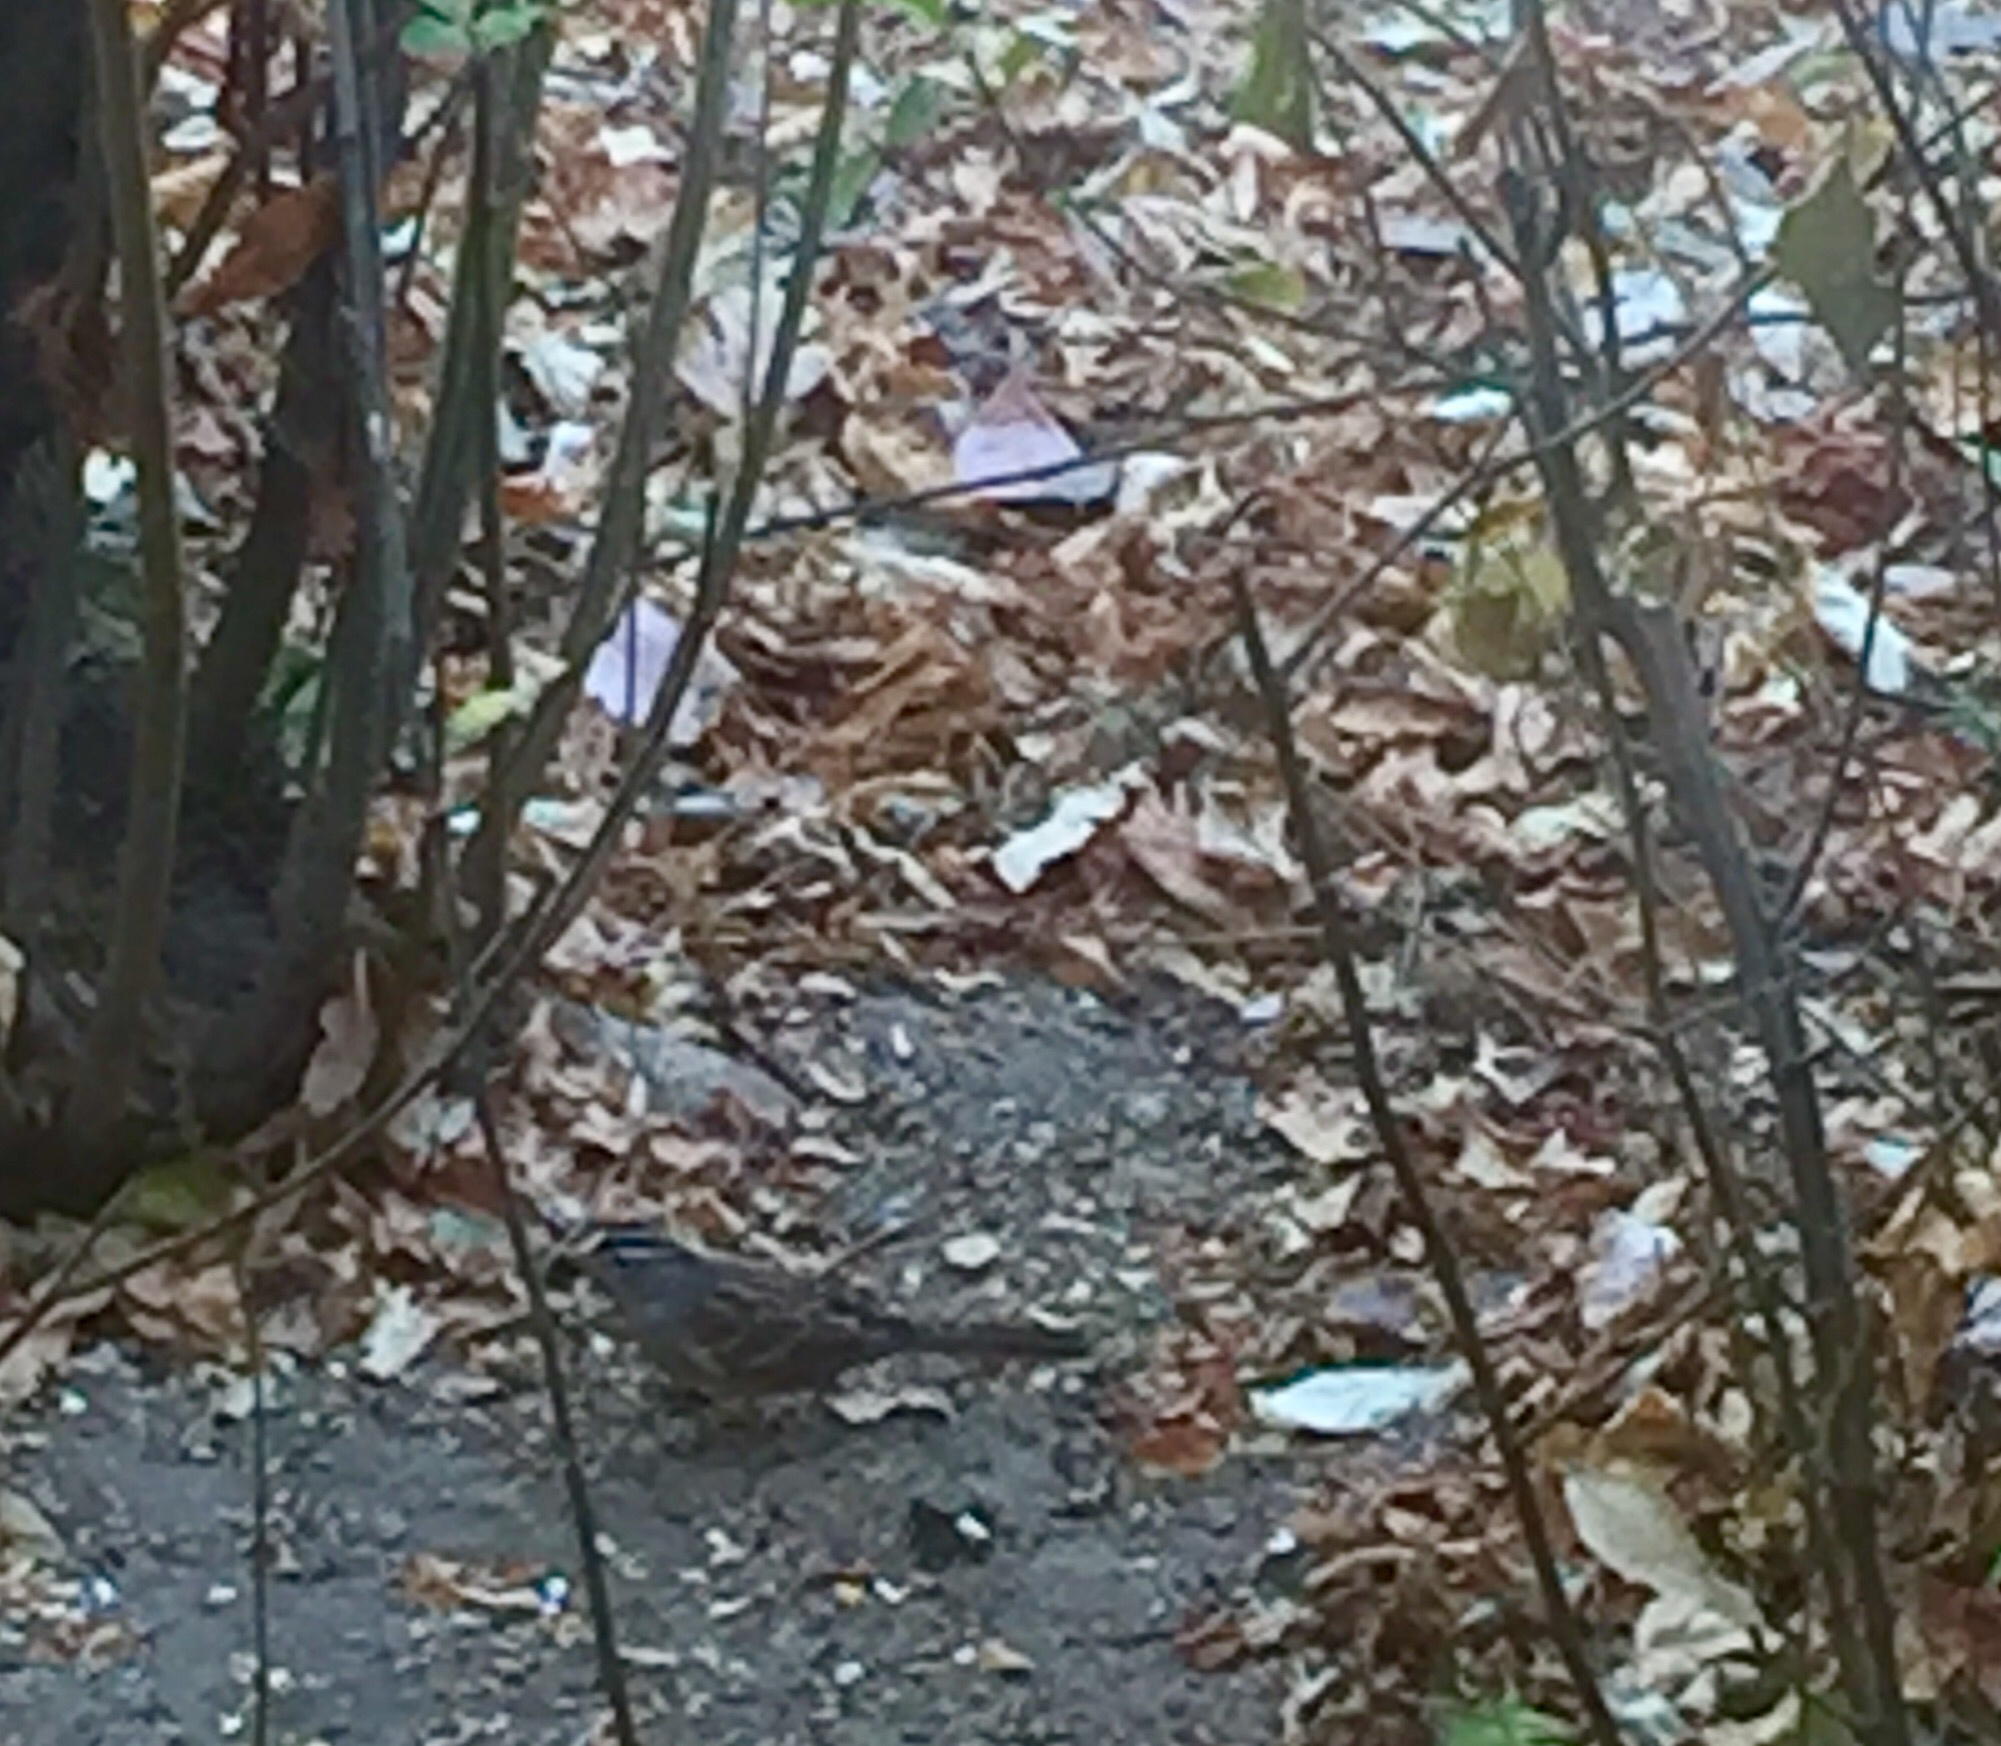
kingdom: Animalia
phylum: Chordata
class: Aves
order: Passeriformes
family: Passerellidae
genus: Zonotrichia
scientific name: Zonotrichia leucophrys
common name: White-crowned sparrow
